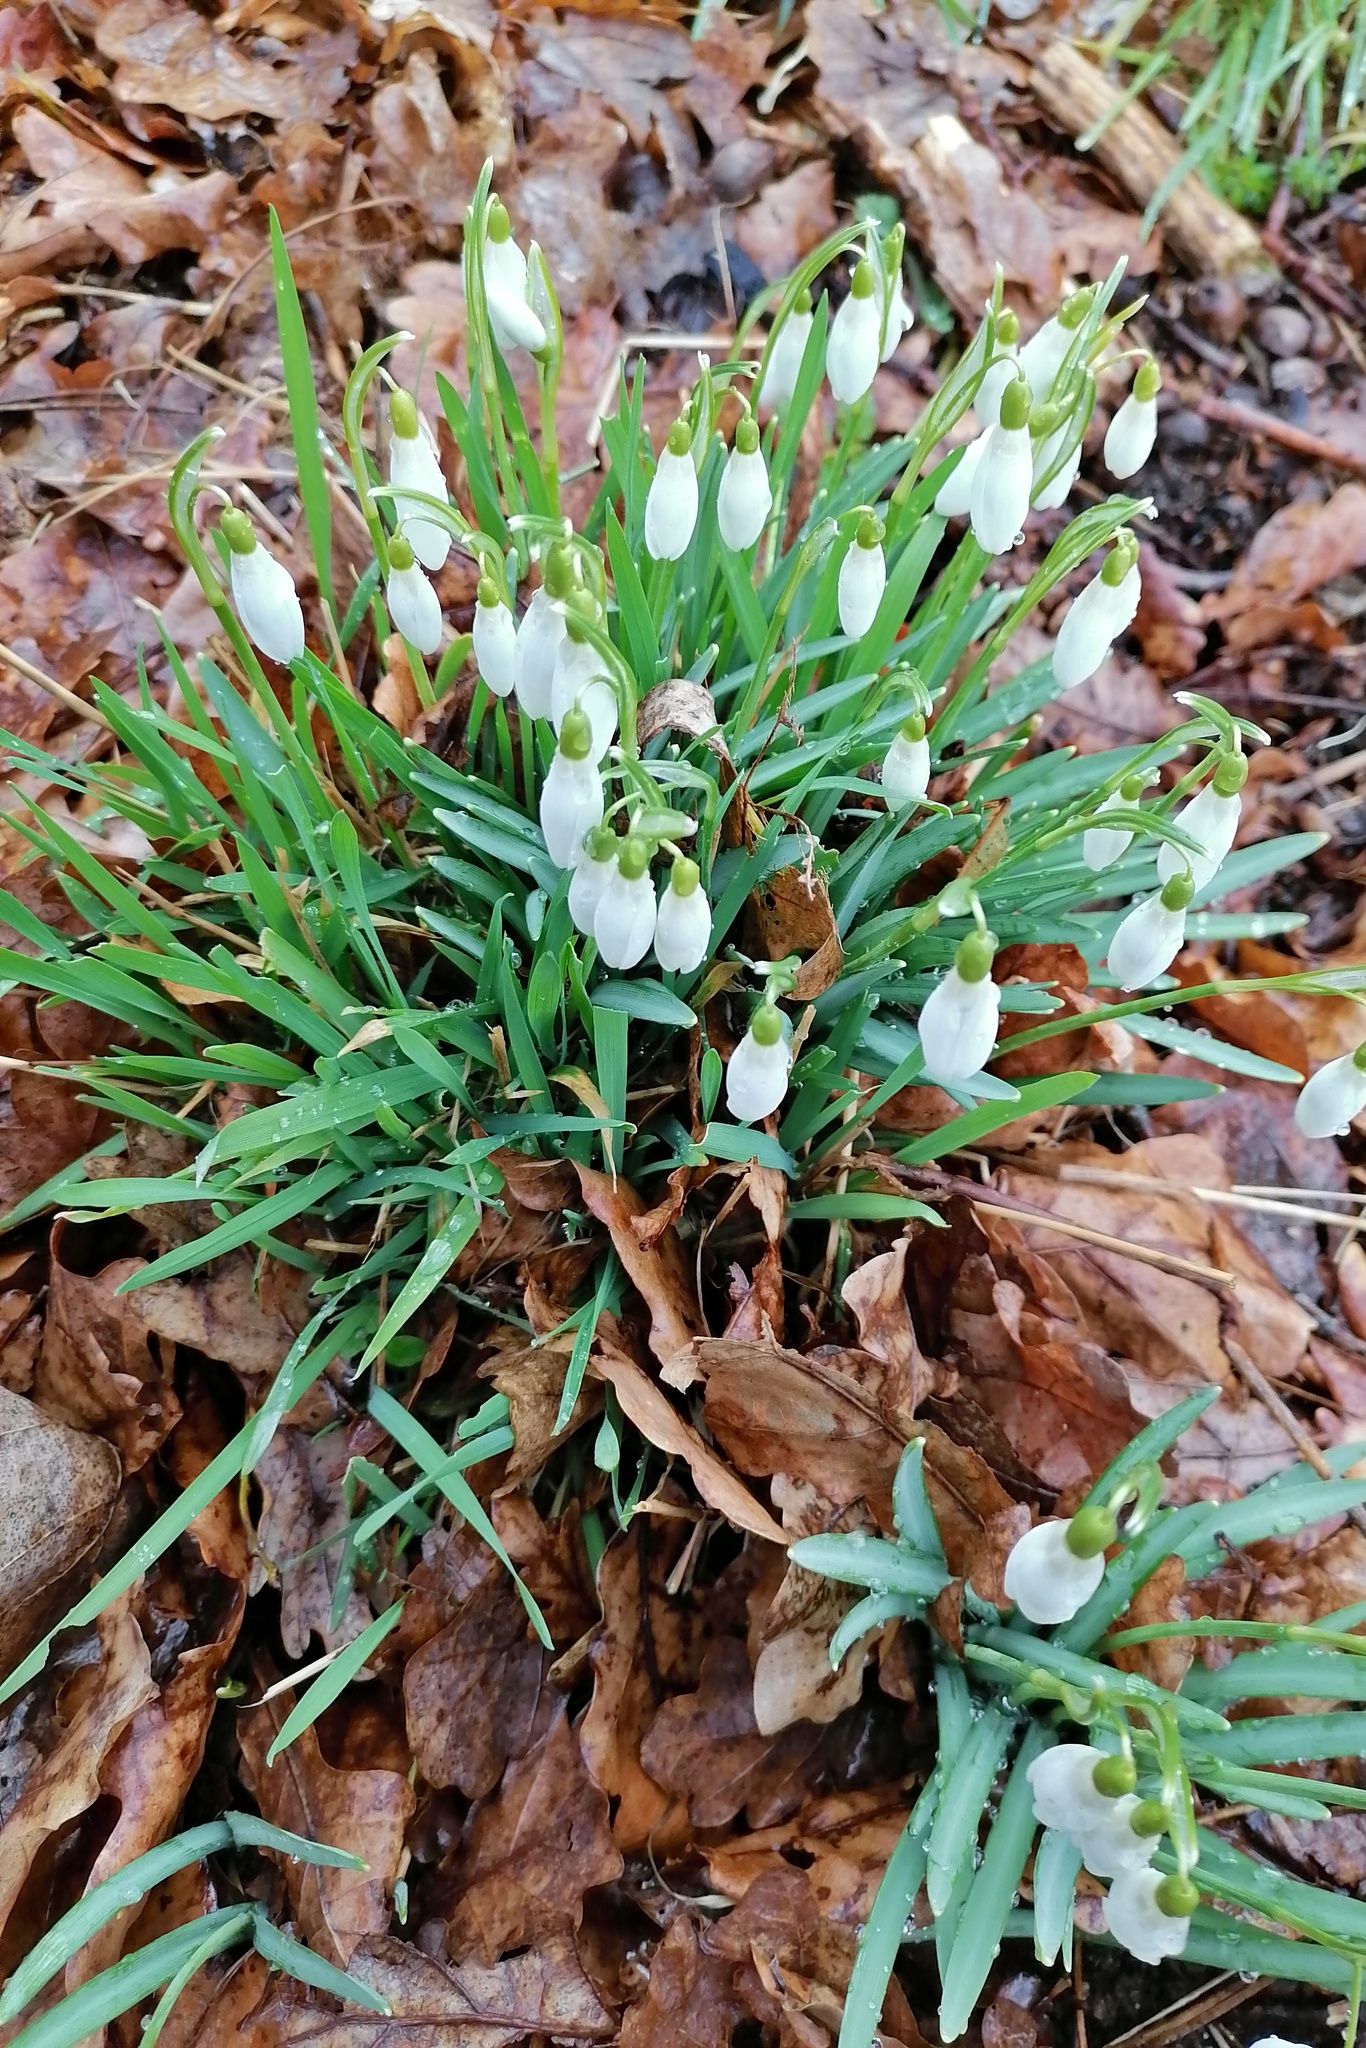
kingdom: Plantae
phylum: Tracheophyta
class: Liliopsida
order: Asparagales
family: Amaryllidaceae
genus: Galanthus
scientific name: Galanthus nivalis
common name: Snowdrop
